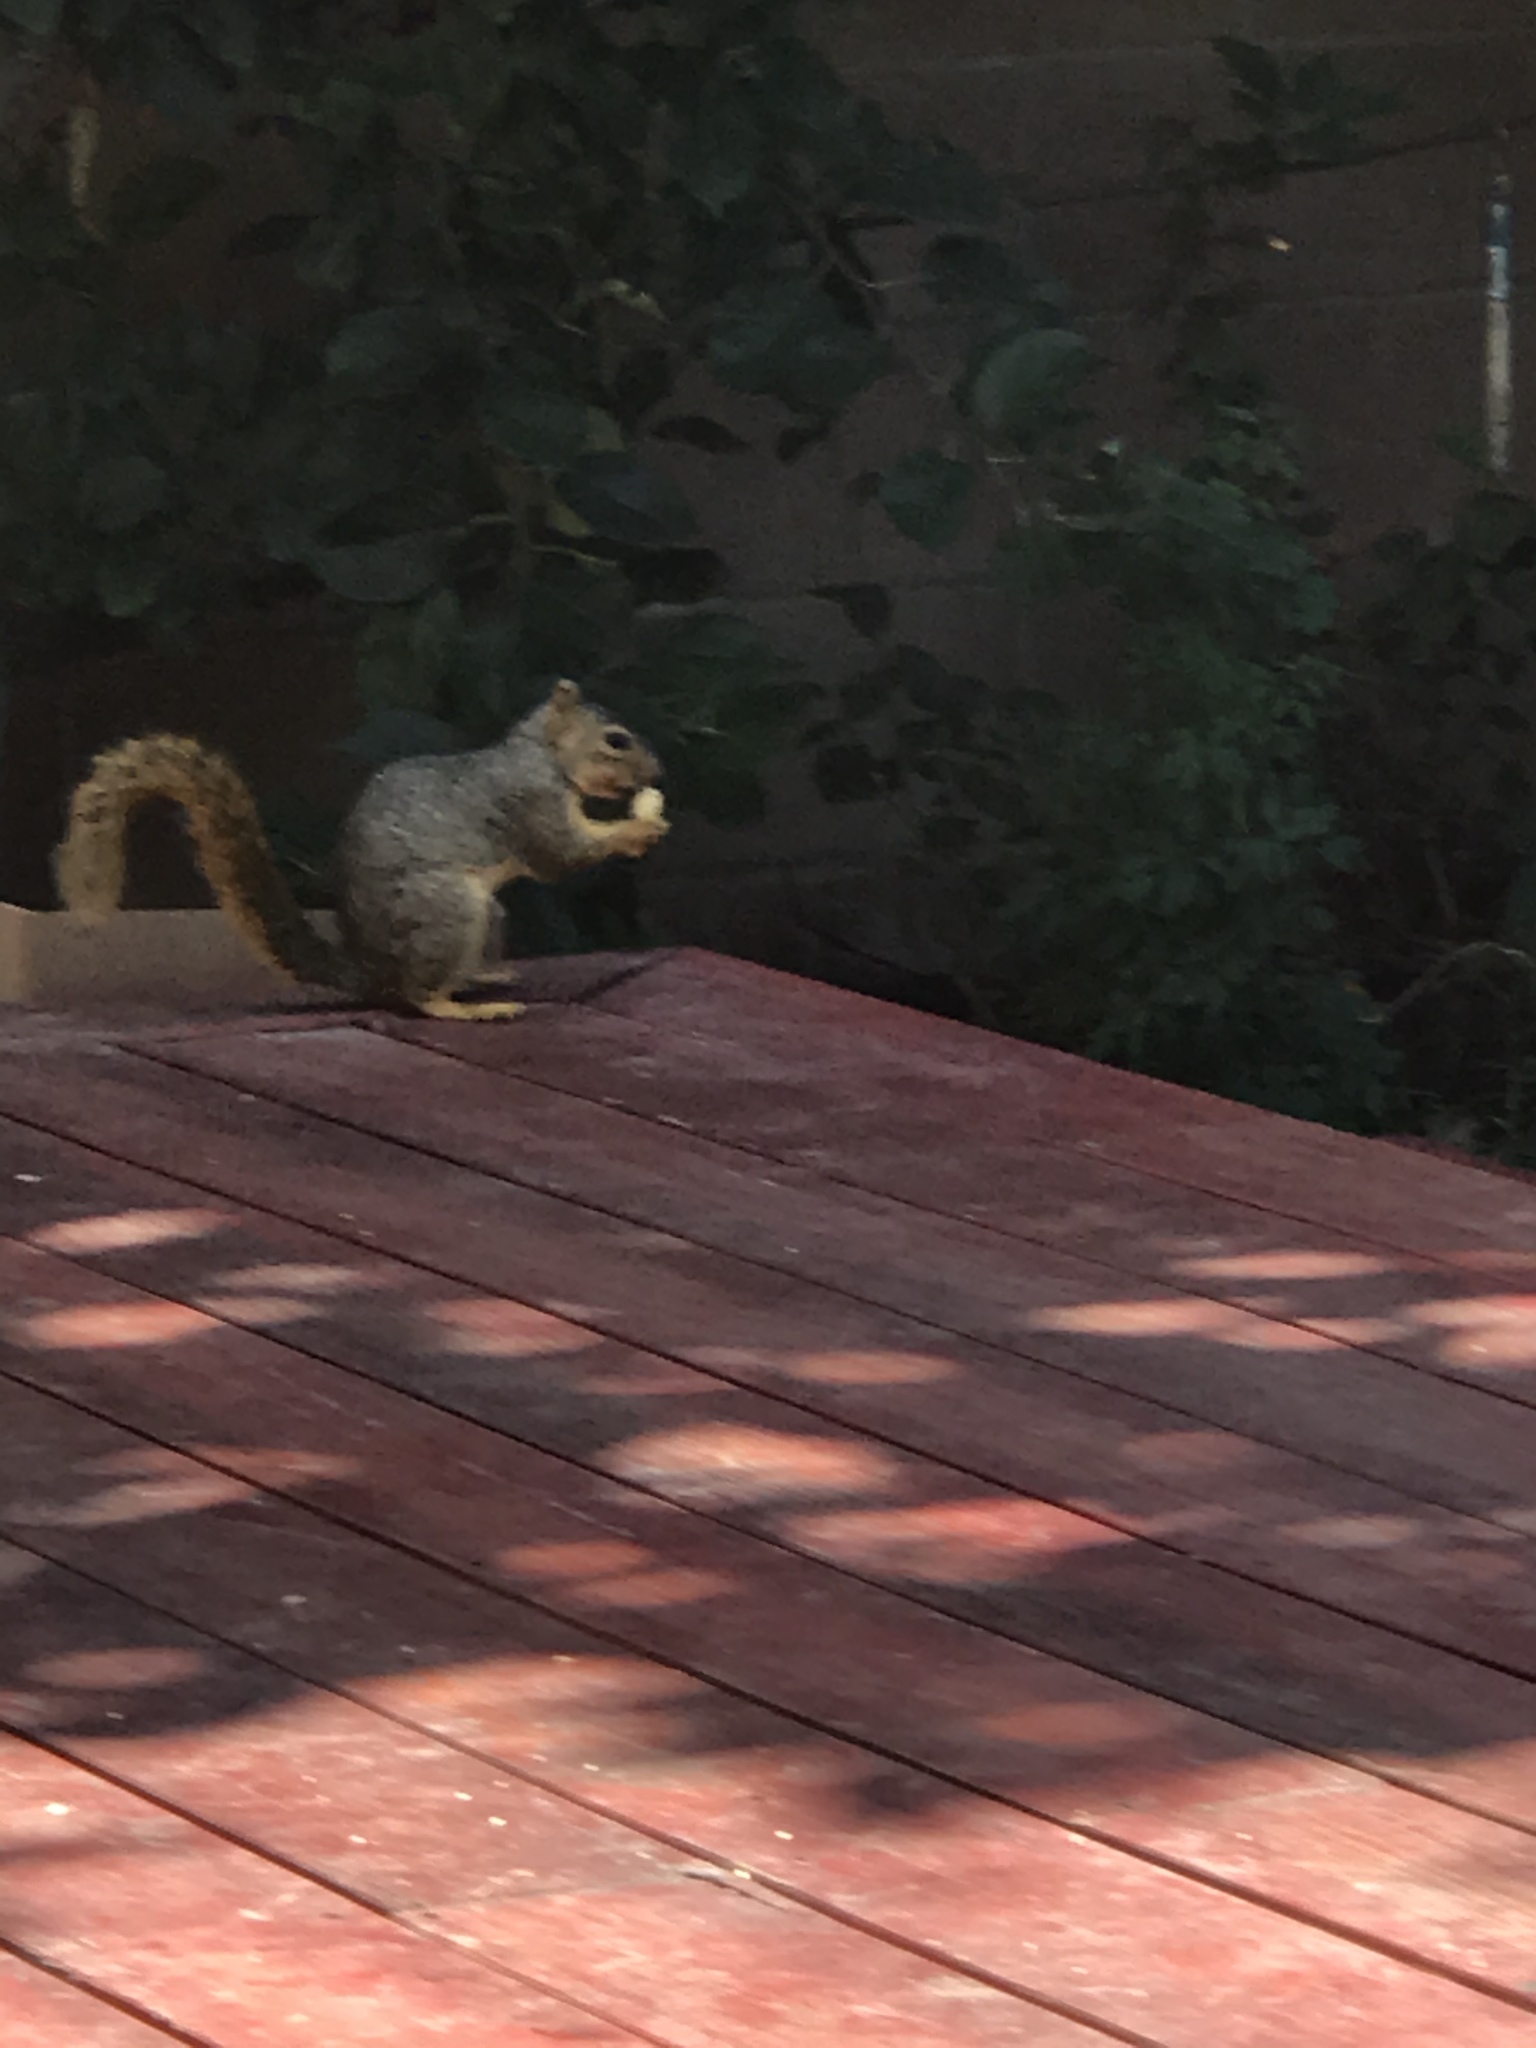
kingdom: Animalia
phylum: Chordata
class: Mammalia
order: Rodentia
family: Sciuridae
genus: Sciurus
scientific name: Sciurus niger
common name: Fox squirrel
